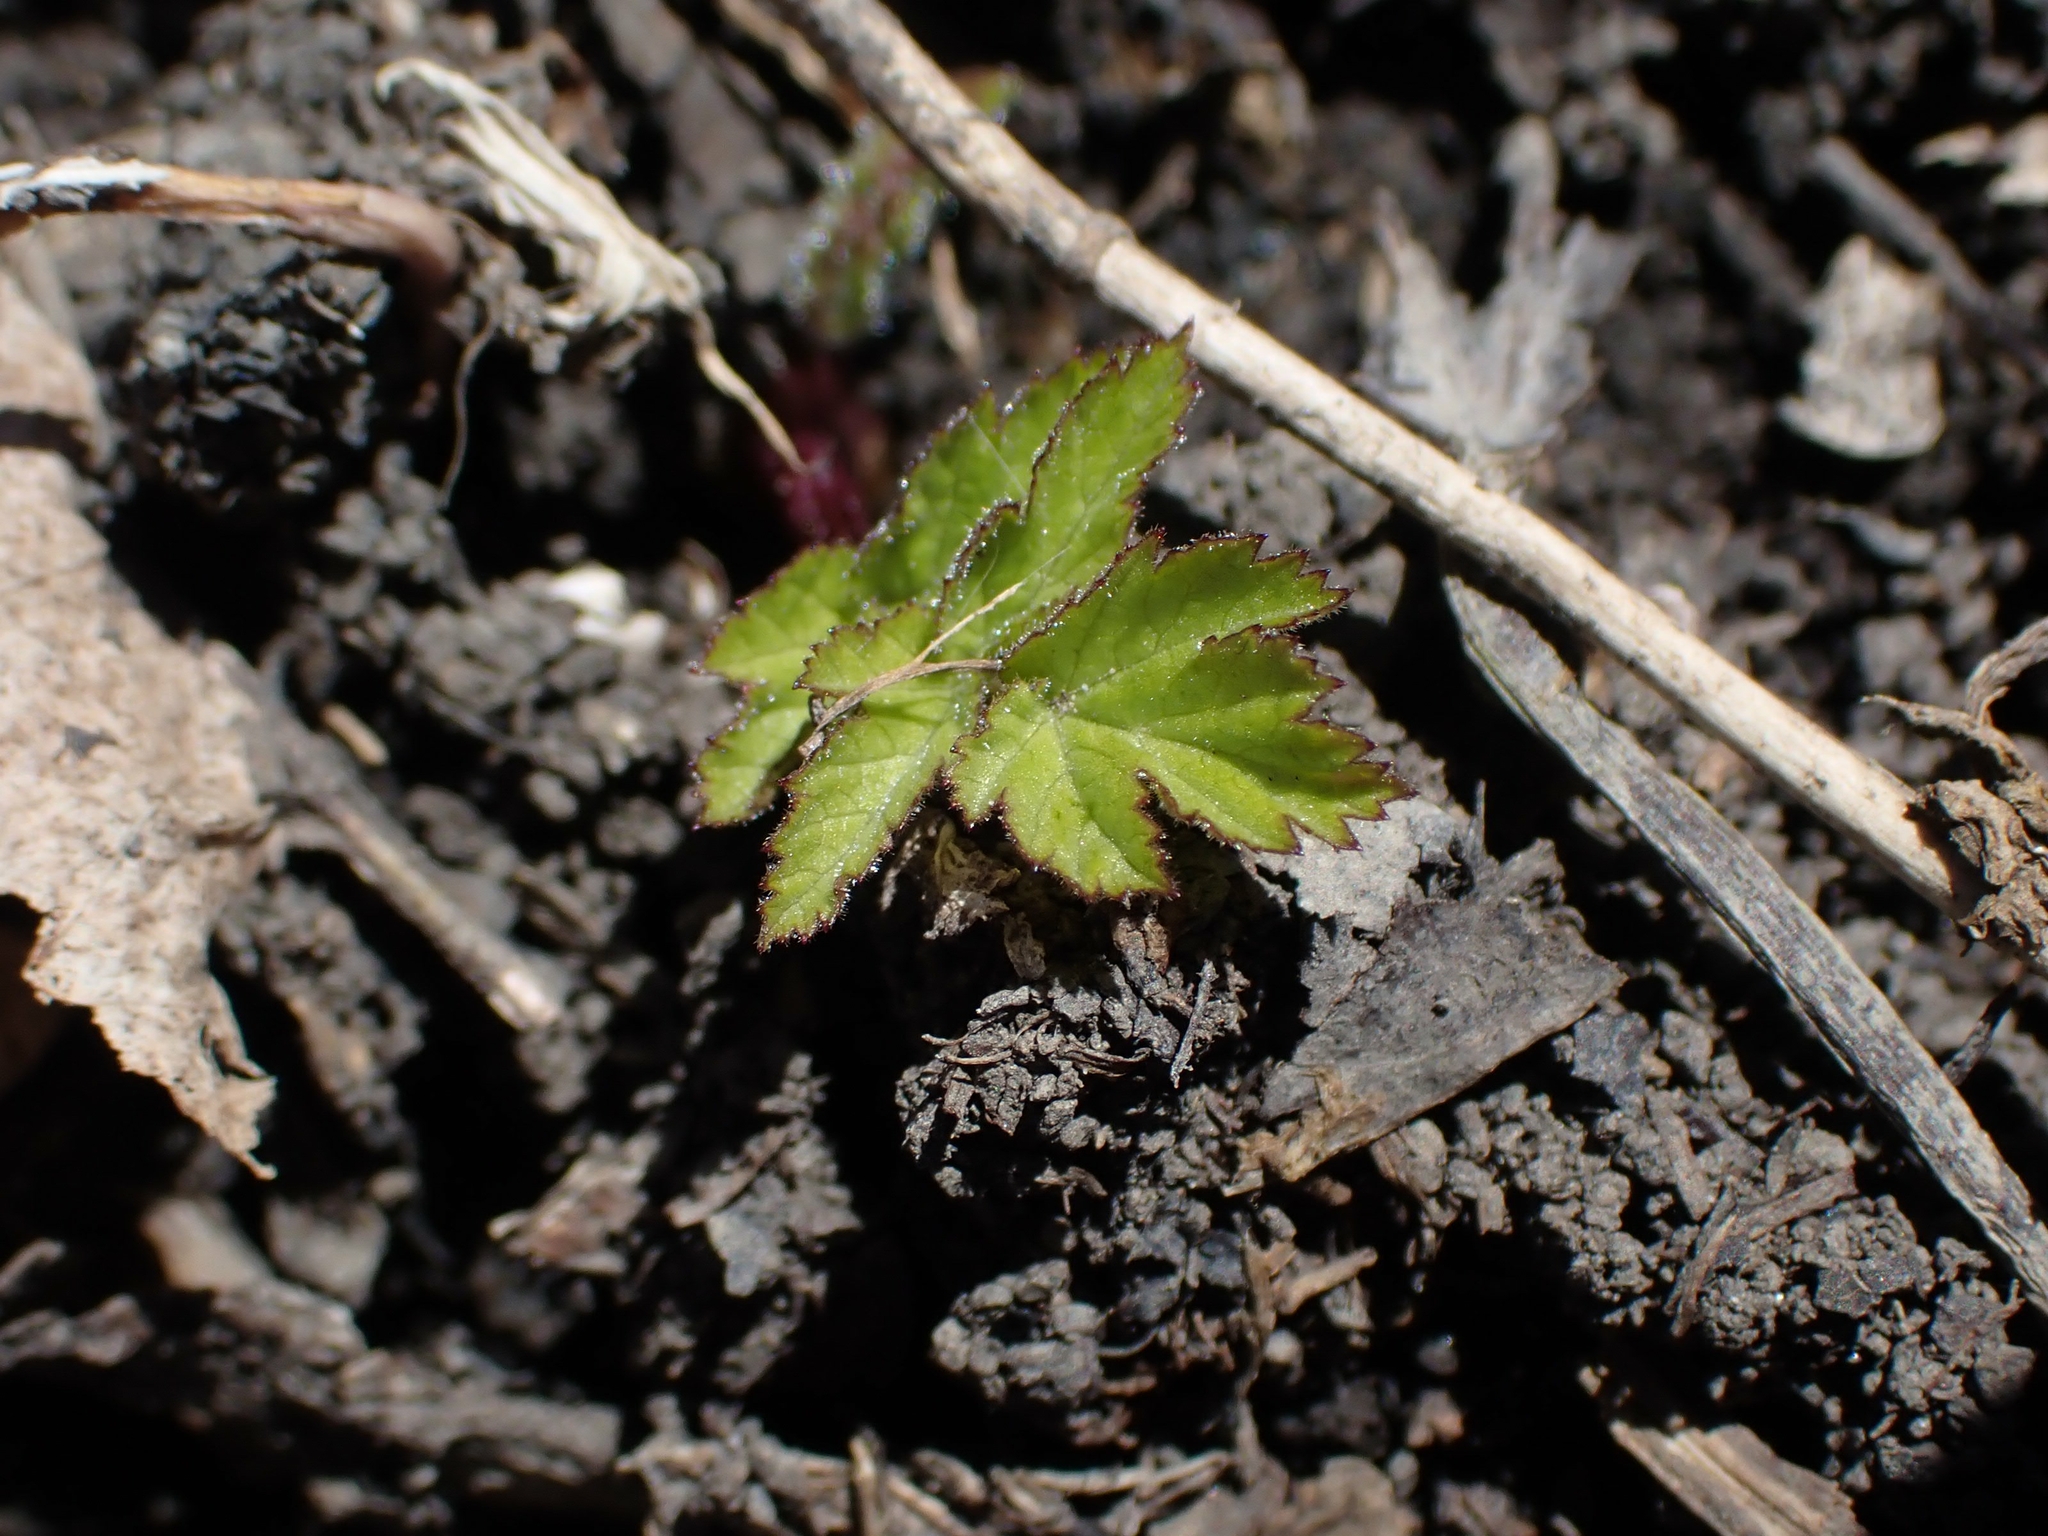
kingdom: Plantae
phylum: Tracheophyta
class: Magnoliopsida
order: Apiales
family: Apiaceae
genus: Pastinaca
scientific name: Pastinaca sativa
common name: Wild parsnip
